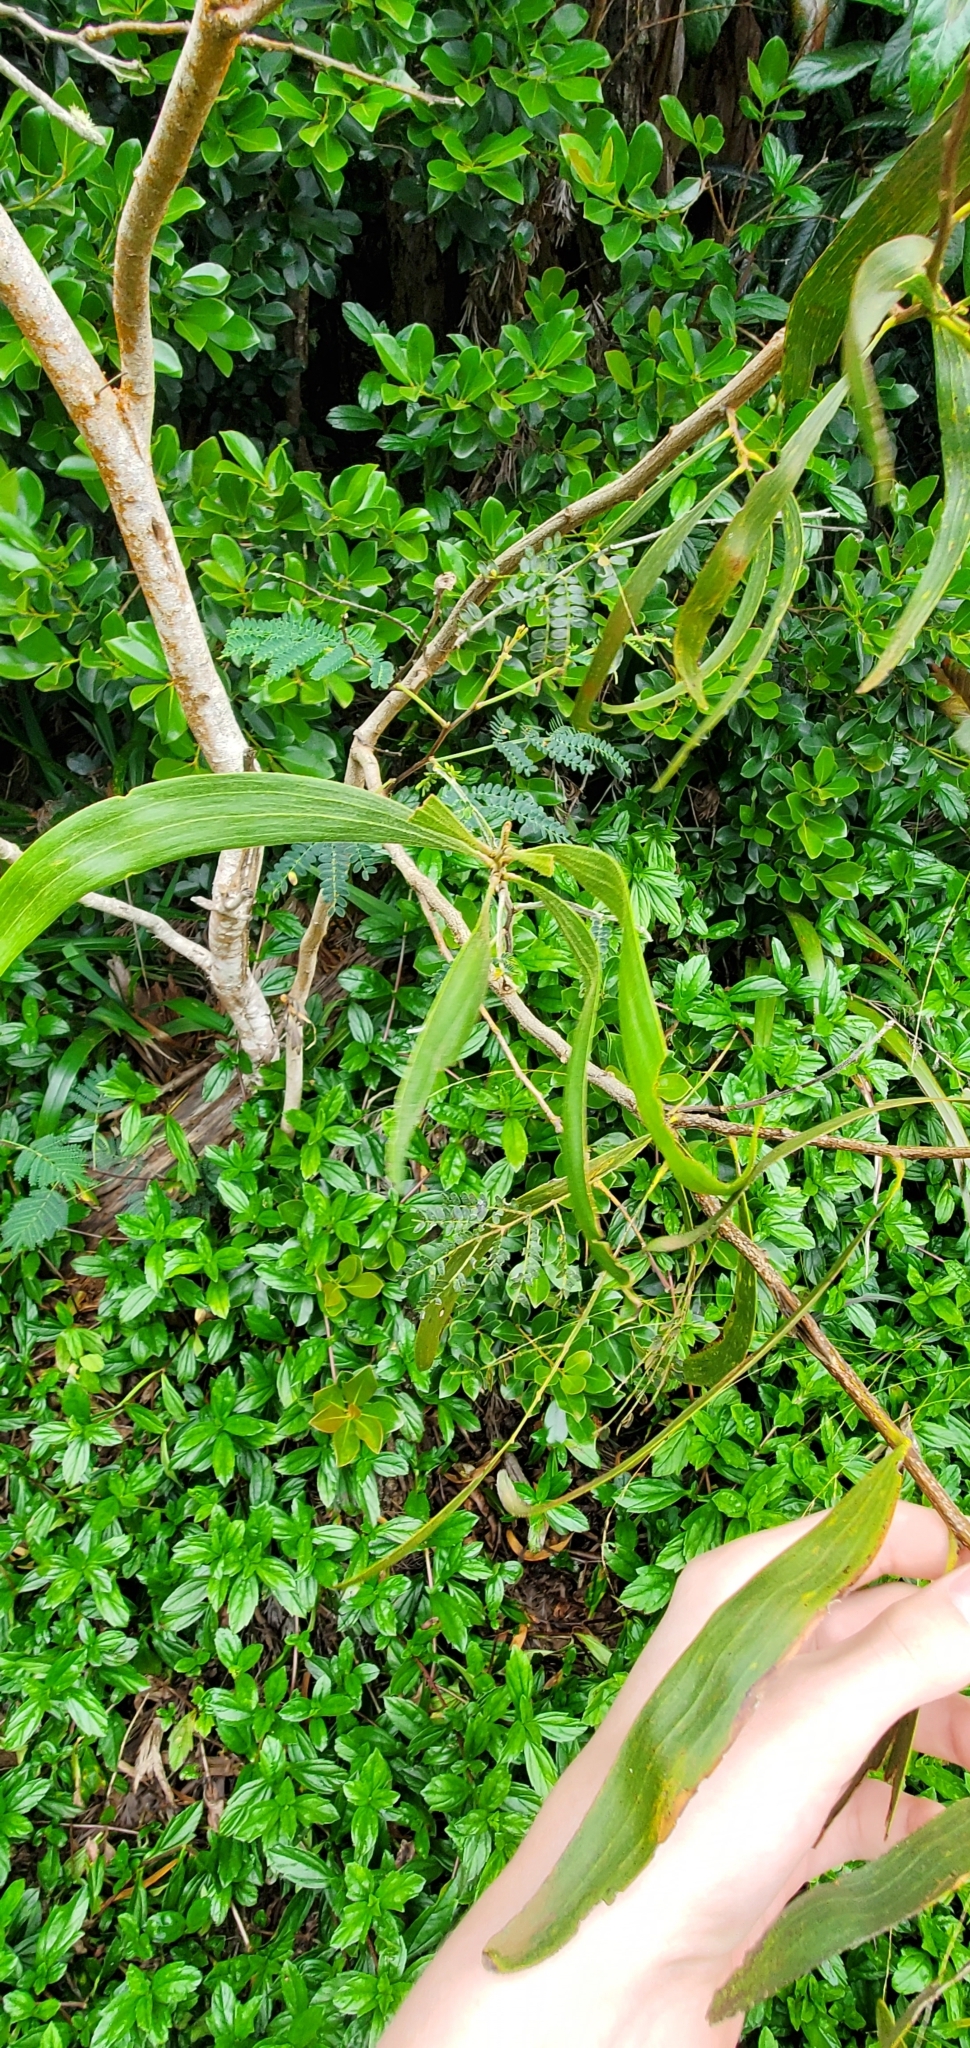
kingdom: Plantae
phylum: Tracheophyta
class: Magnoliopsida
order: Fabales
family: Fabaceae
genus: Acacia
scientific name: Acacia koa
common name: Gray koa
